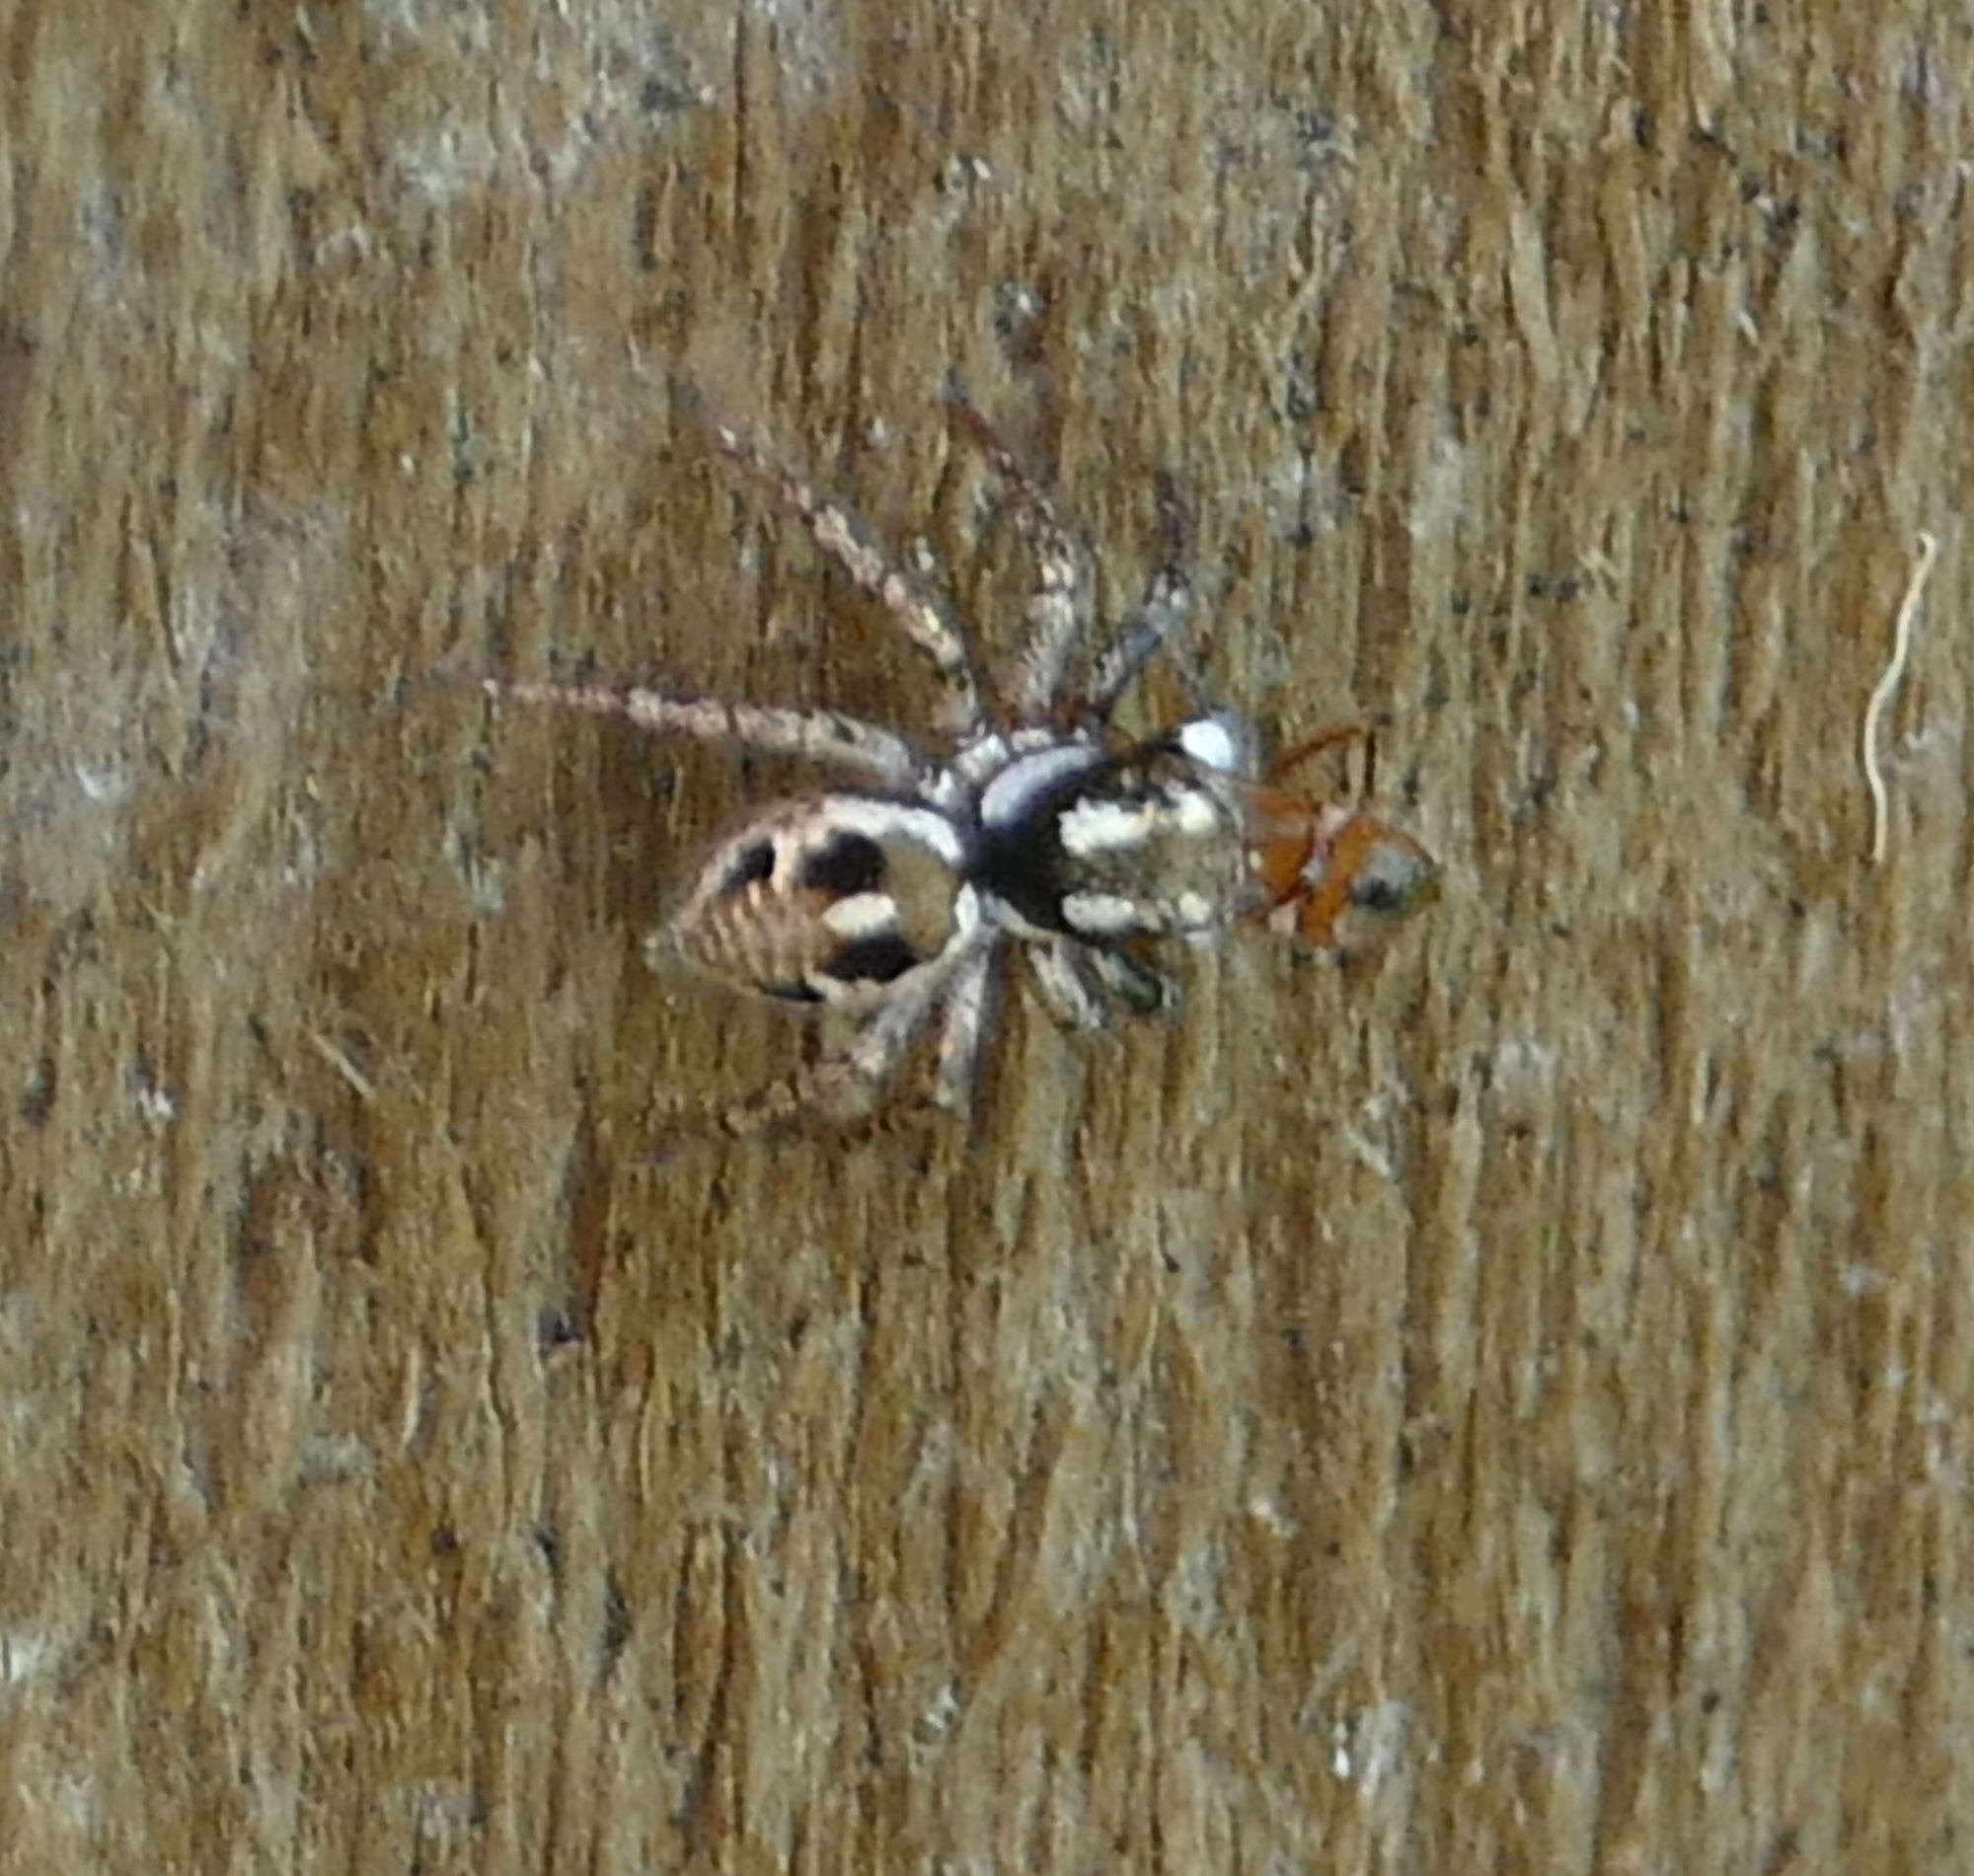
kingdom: Animalia
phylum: Arthropoda
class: Arachnida
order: Araneae
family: Salticidae
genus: Anasaitis
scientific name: Anasaitis canosa
